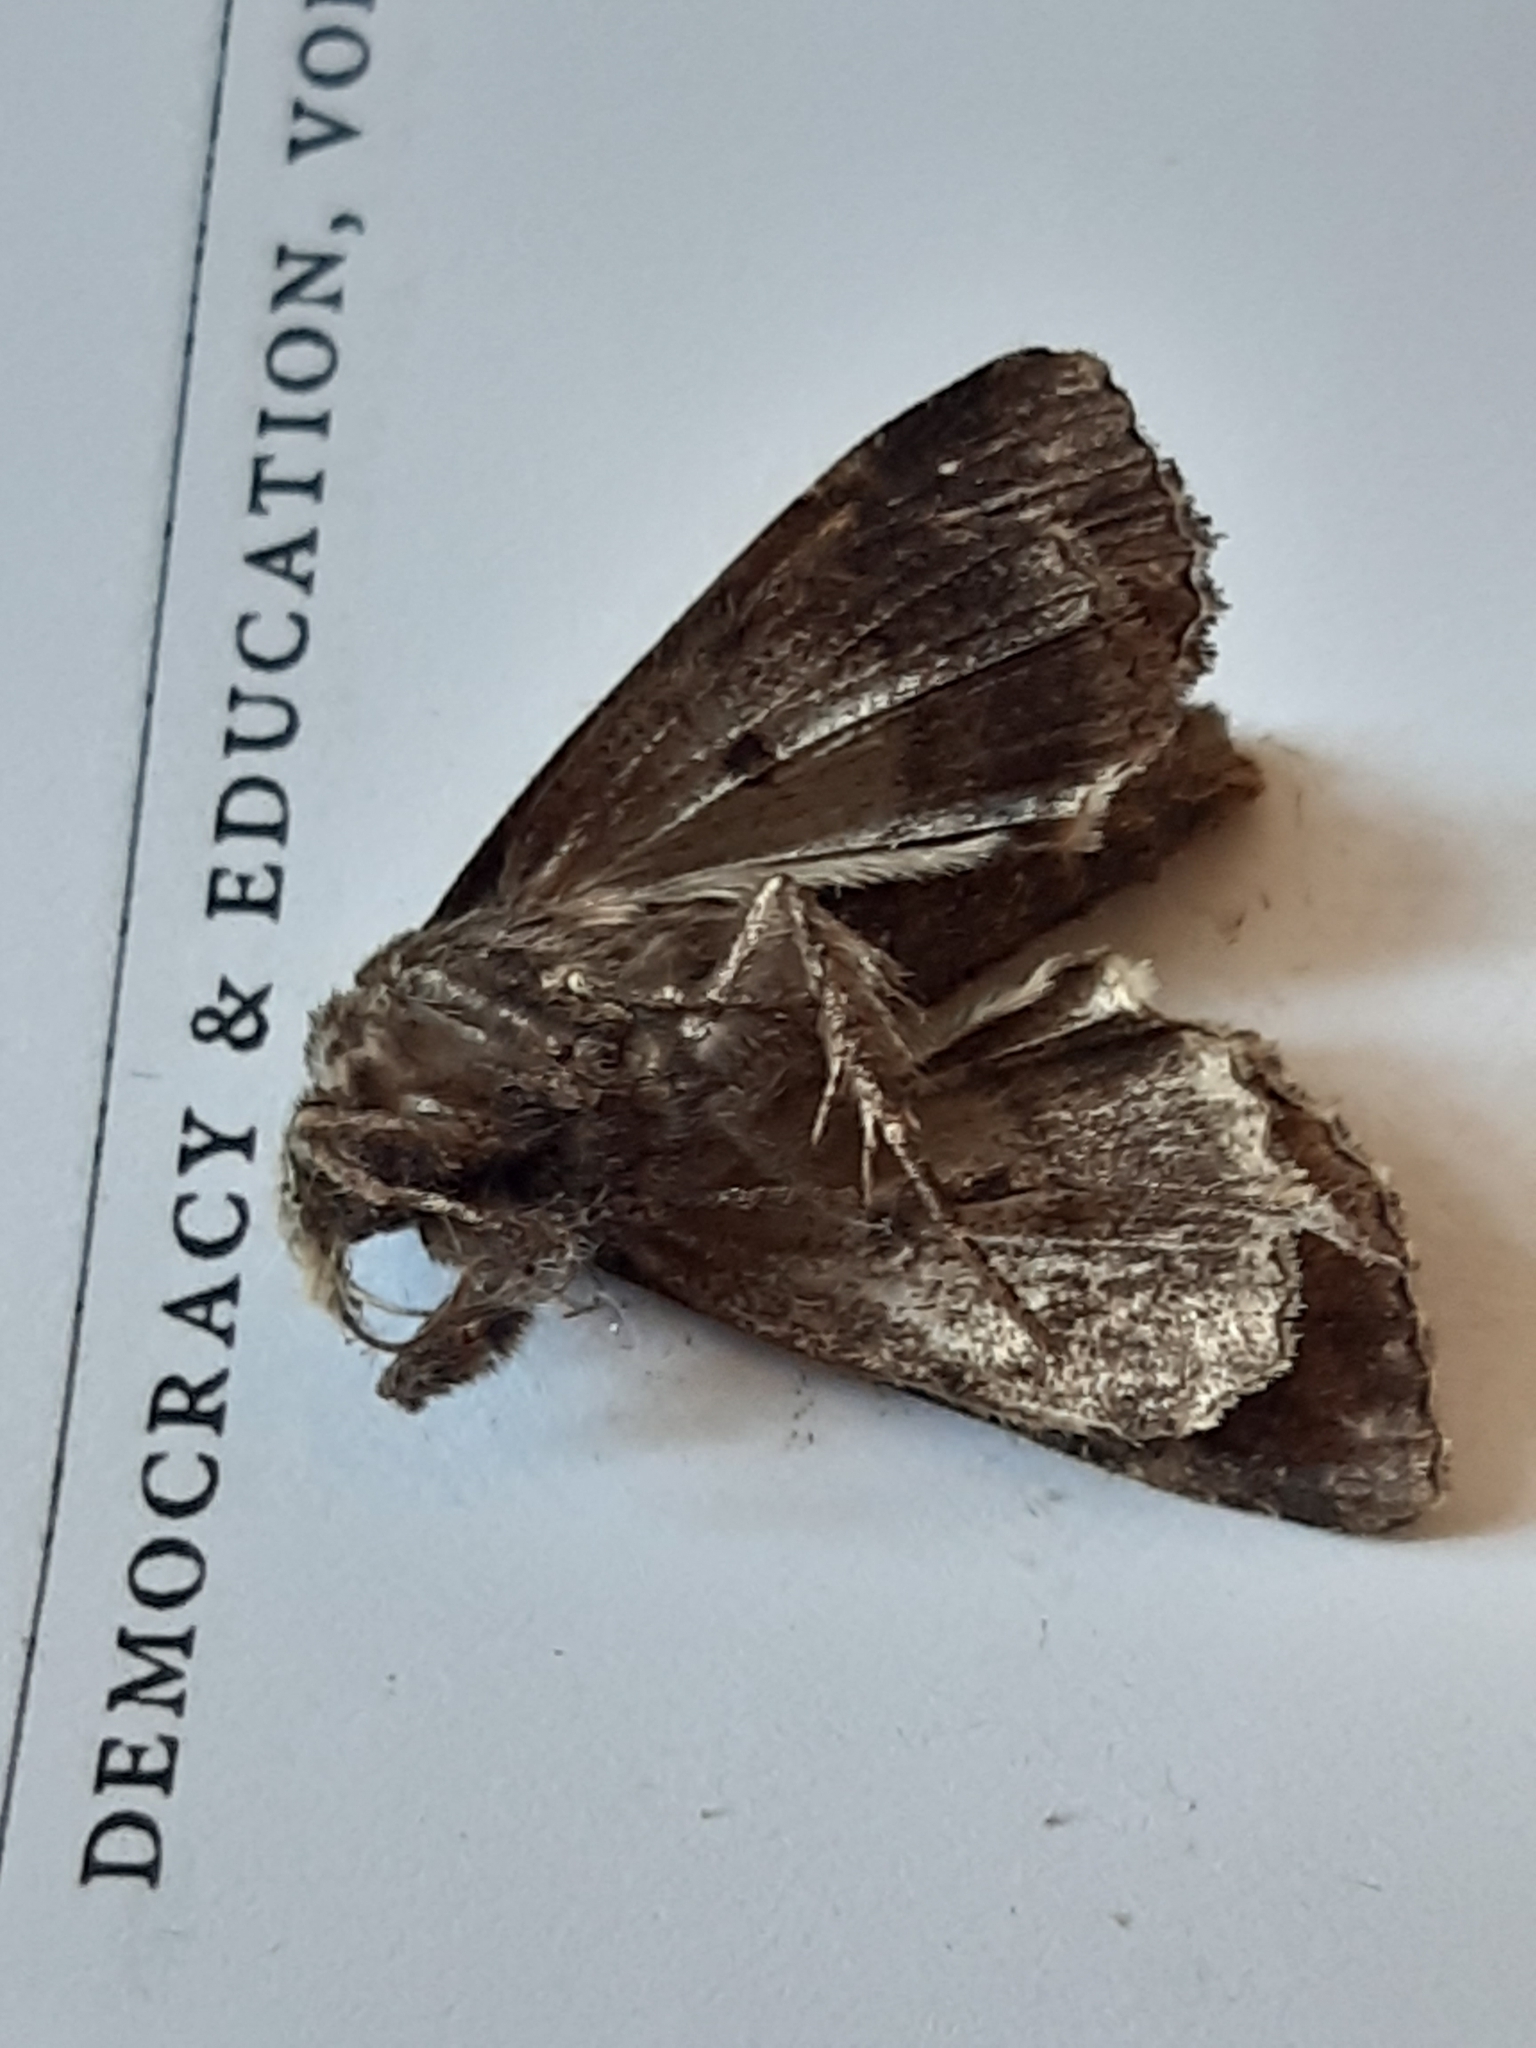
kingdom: Animalia
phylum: Arthropoda
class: Insecta
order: Lepidoptera
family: Noctuidae
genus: Trachea
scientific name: Trachea atriplicis
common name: Orache moth
